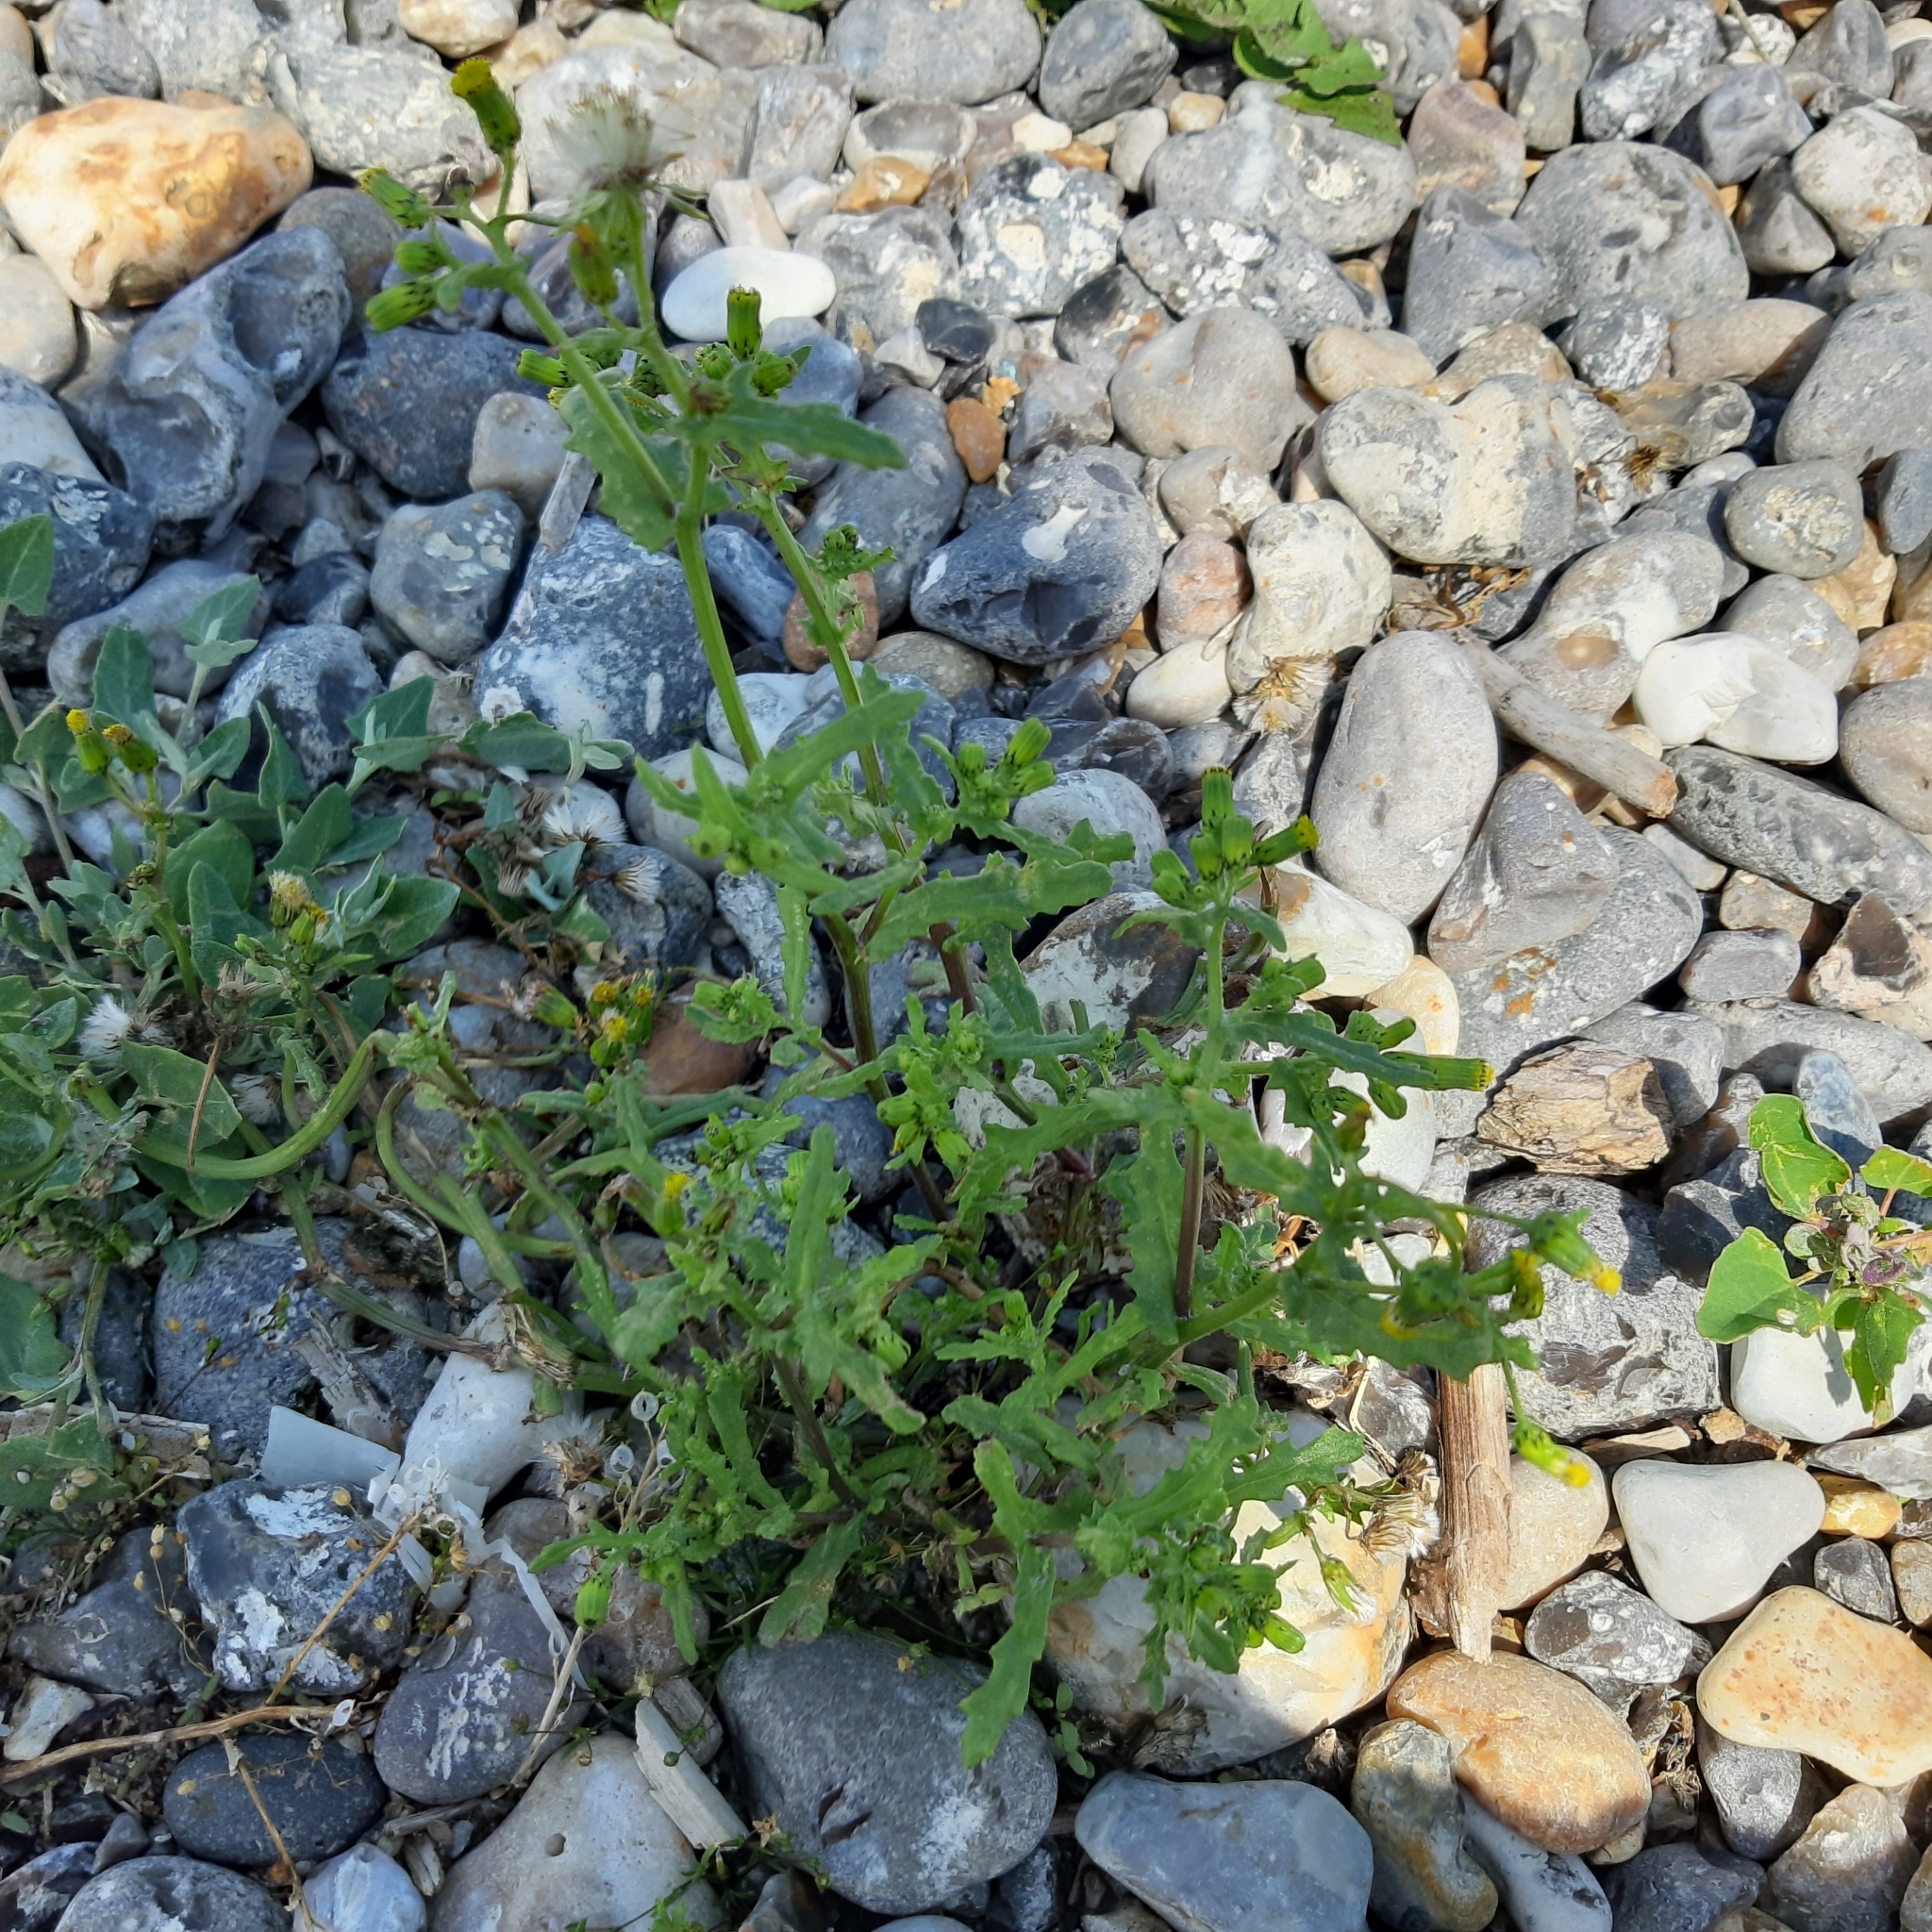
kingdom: Plantae
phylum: Tracheophyta
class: Magnoliopsida
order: Asterales
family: Asteraceae
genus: Senecio
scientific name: Senecio vulgaris
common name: Old-man-in-the-spring
